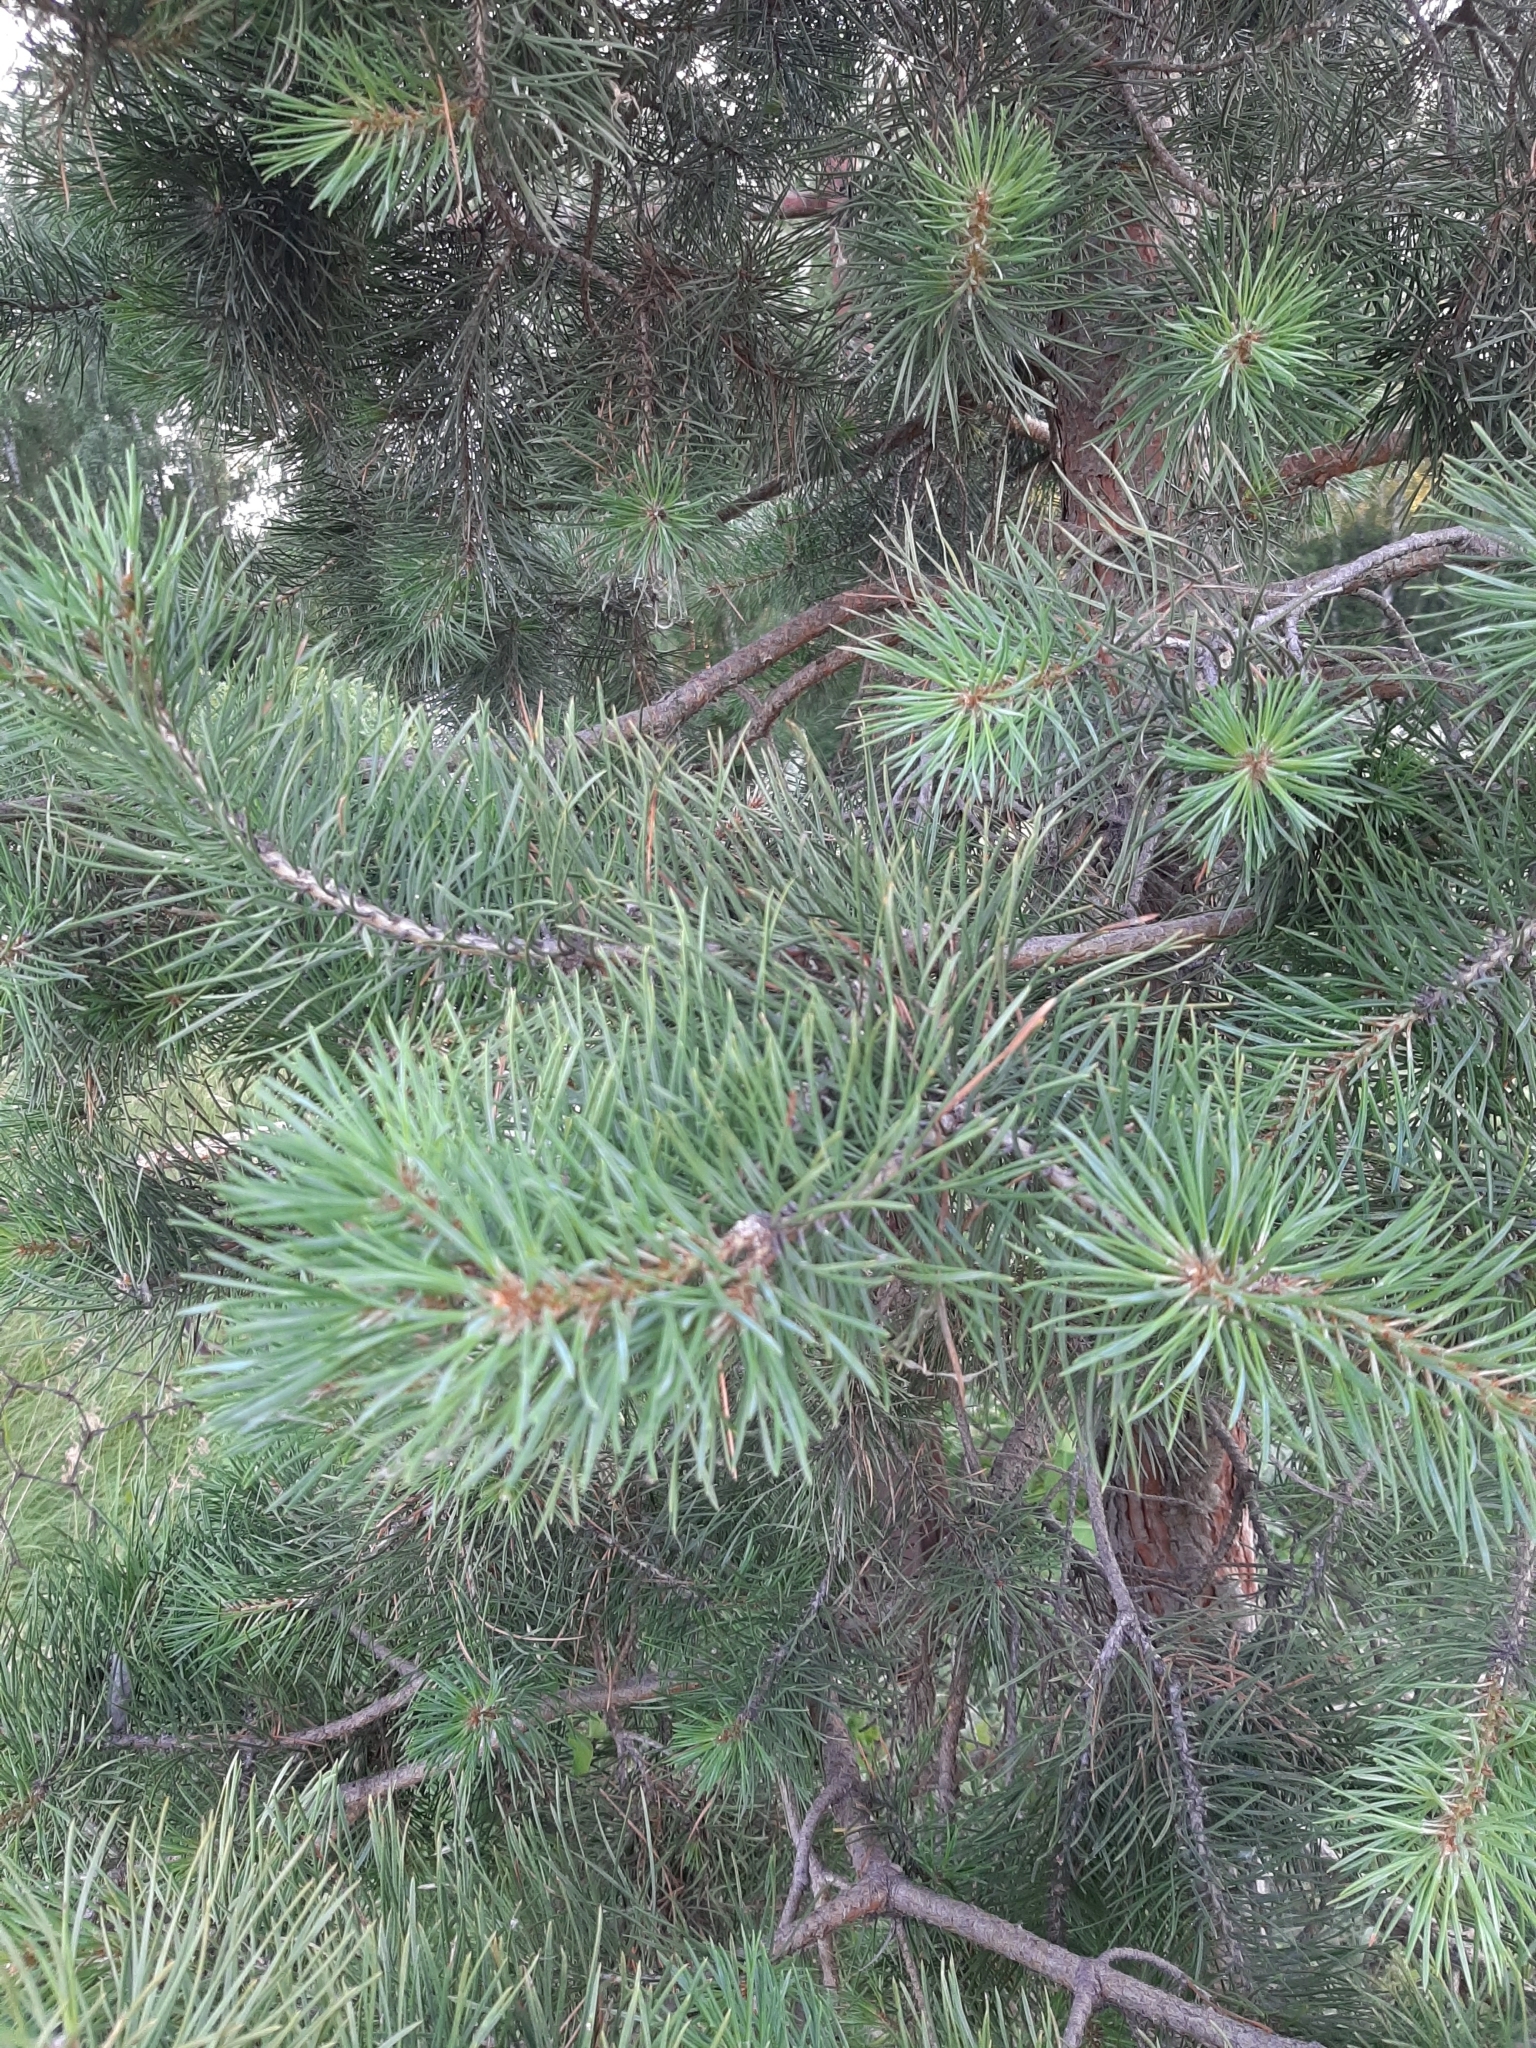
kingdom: Plantae
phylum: Tracheophyta
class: Pinopsida
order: Pinales
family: Pinaceae
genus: Pinus
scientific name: Pinus sylvestris
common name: Scots pine
